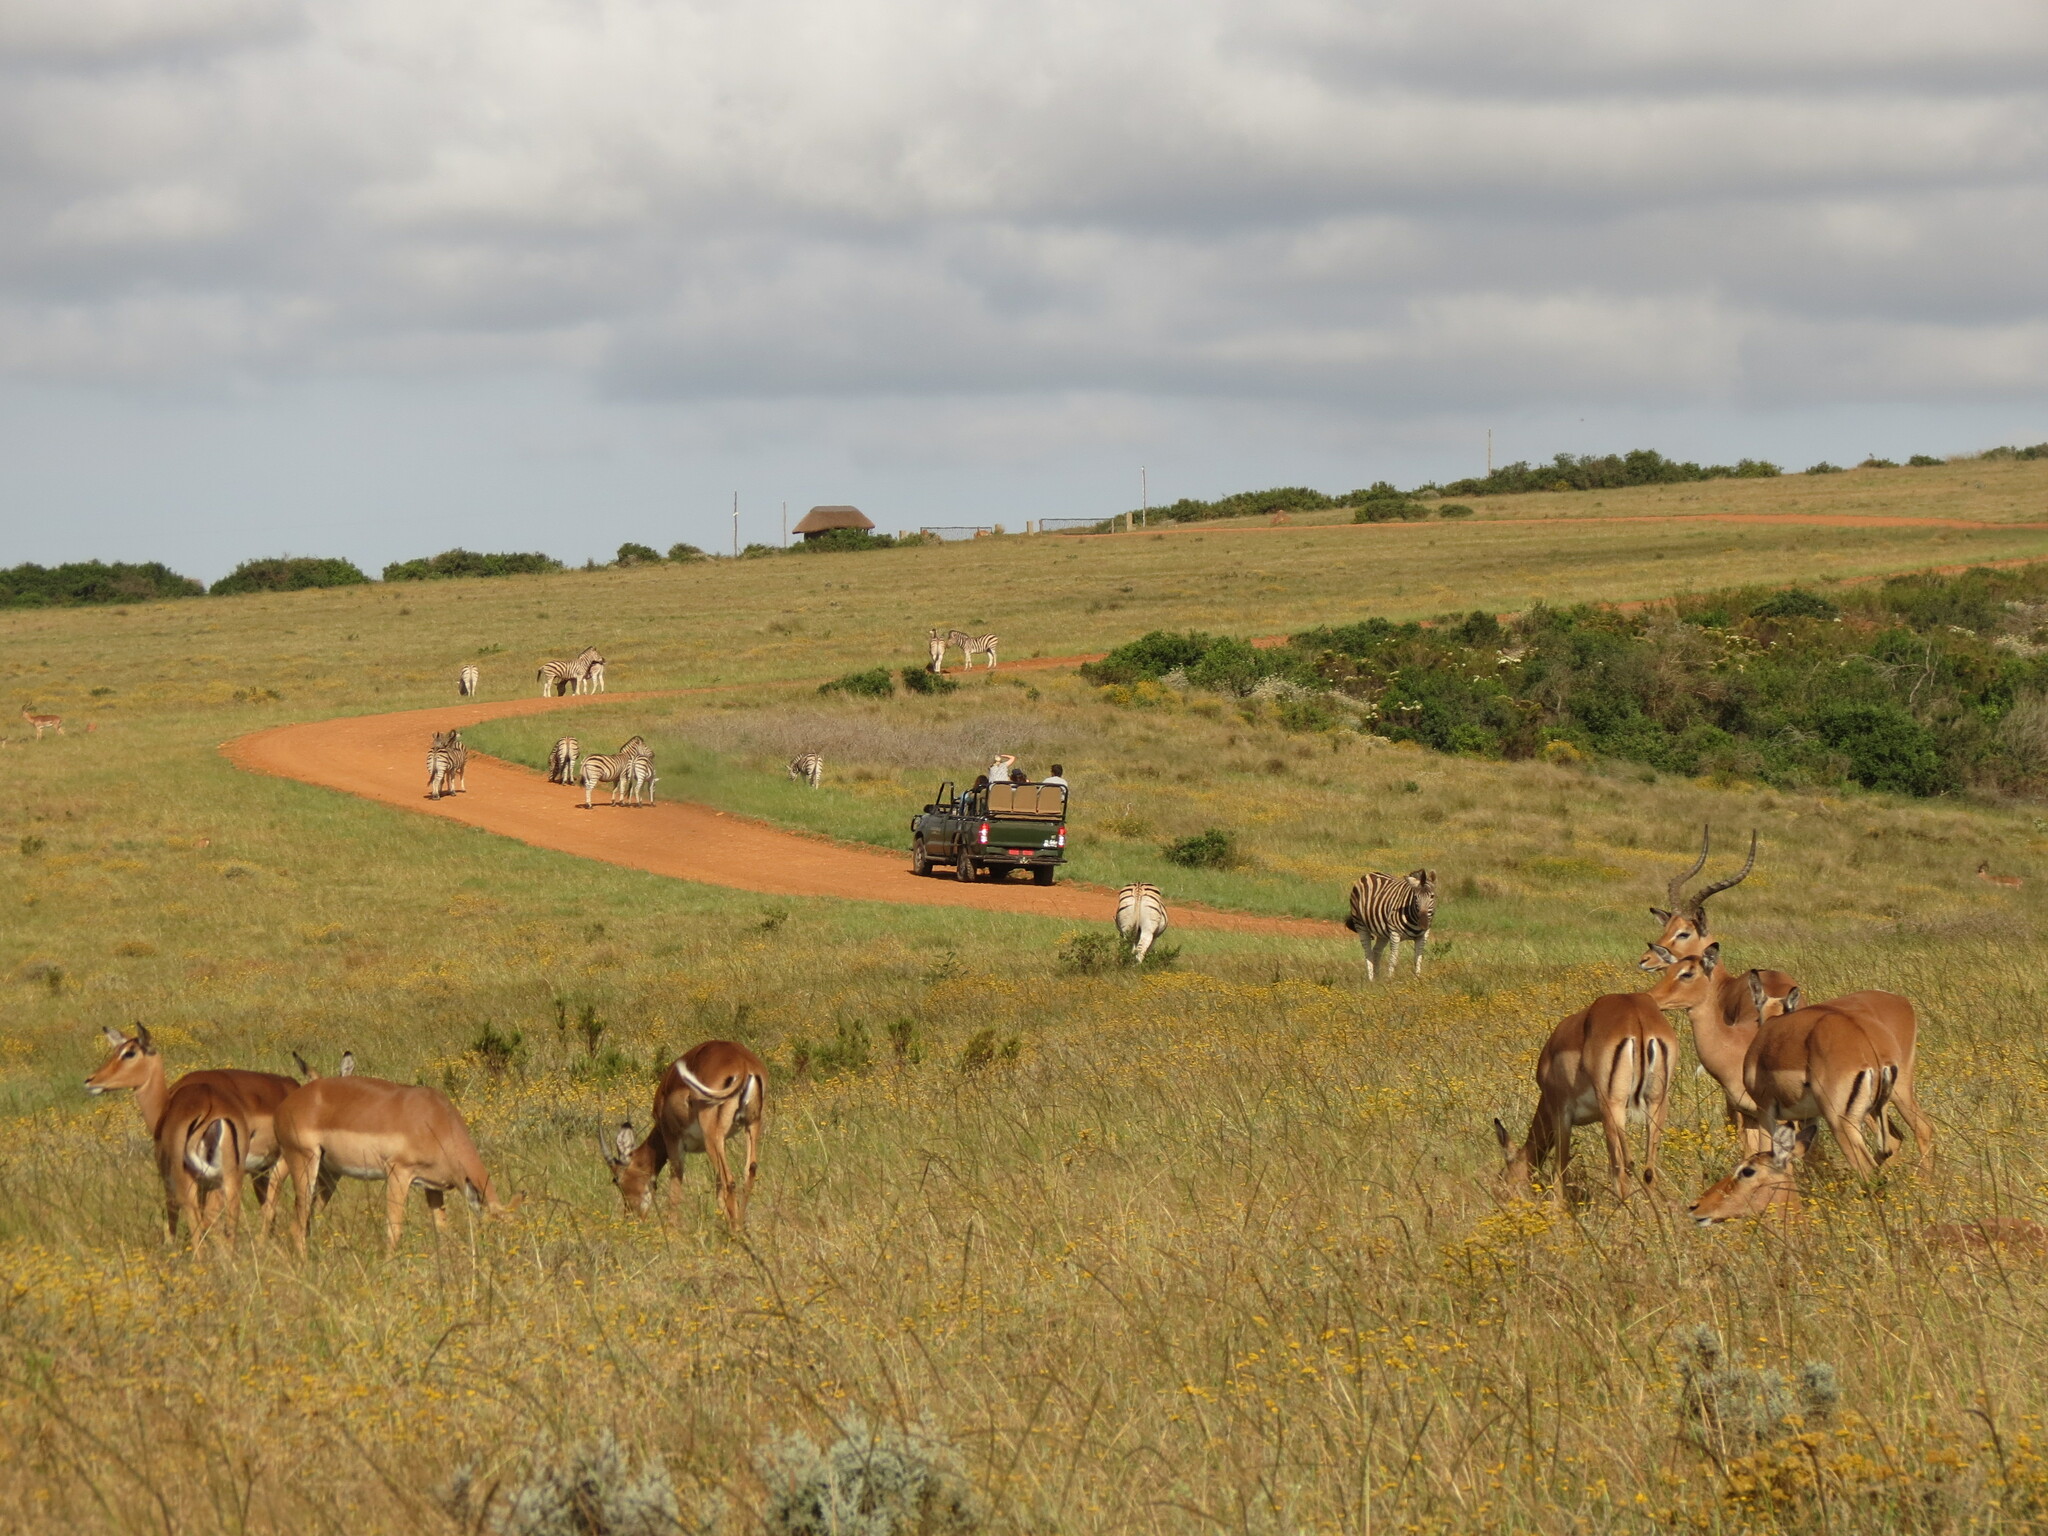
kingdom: Animalia
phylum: Chordata
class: Mammalia
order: Artiodactyla
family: Bovidae
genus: Aepyceros
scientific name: Aepyceros melampus
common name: Impala
